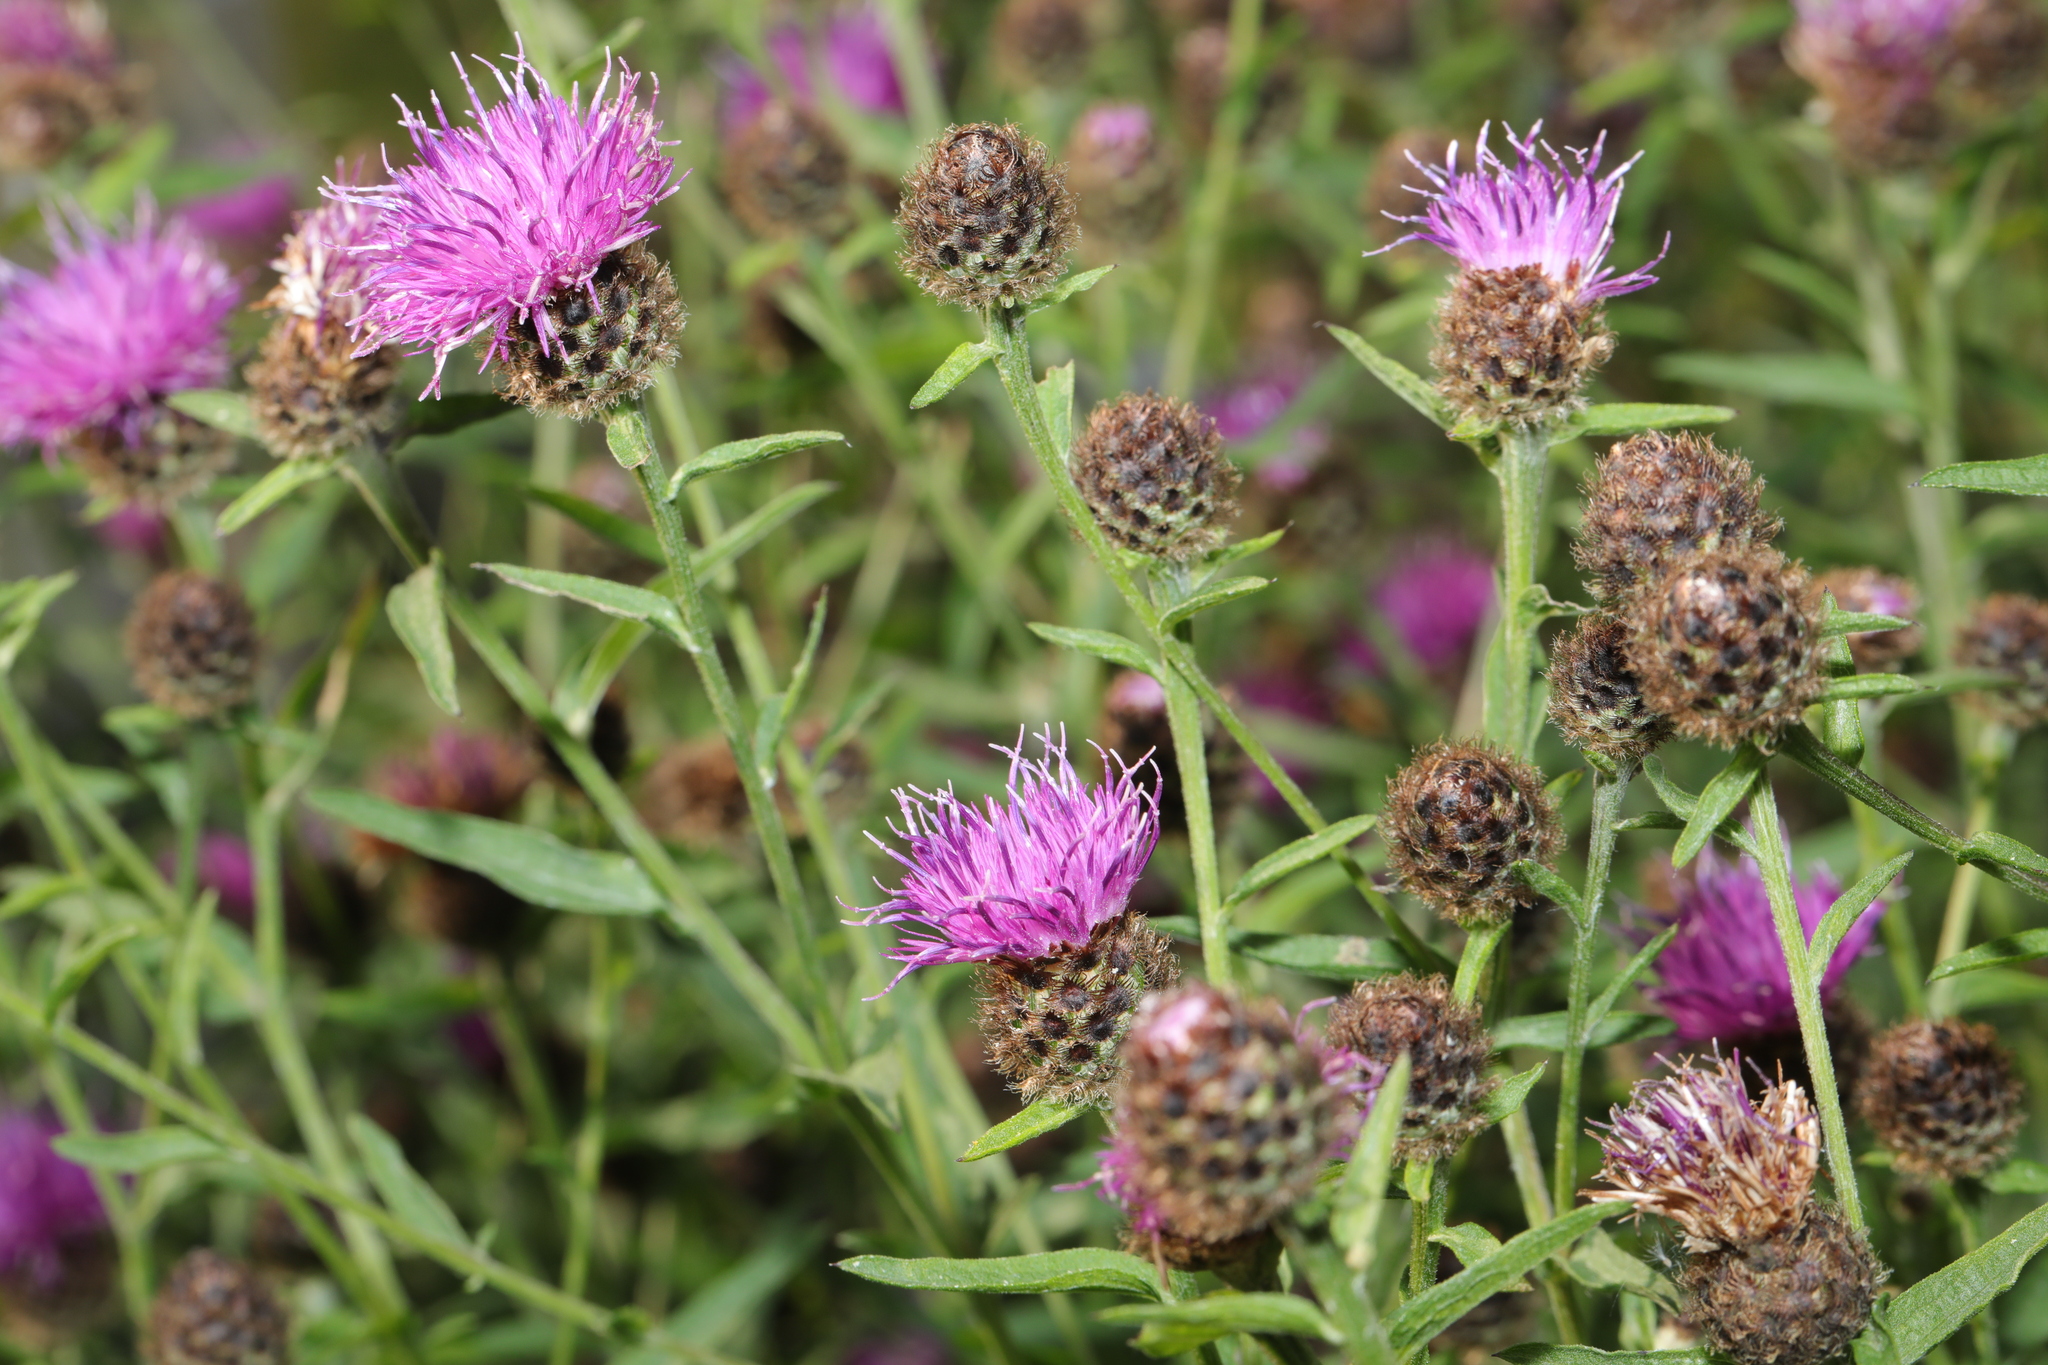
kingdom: Plantae
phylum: Tracheophyta
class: Magnoliopsida
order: Asterales
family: Asteraceae
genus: Centaurea
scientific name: Centaurea nigra
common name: Lesser knapweed
